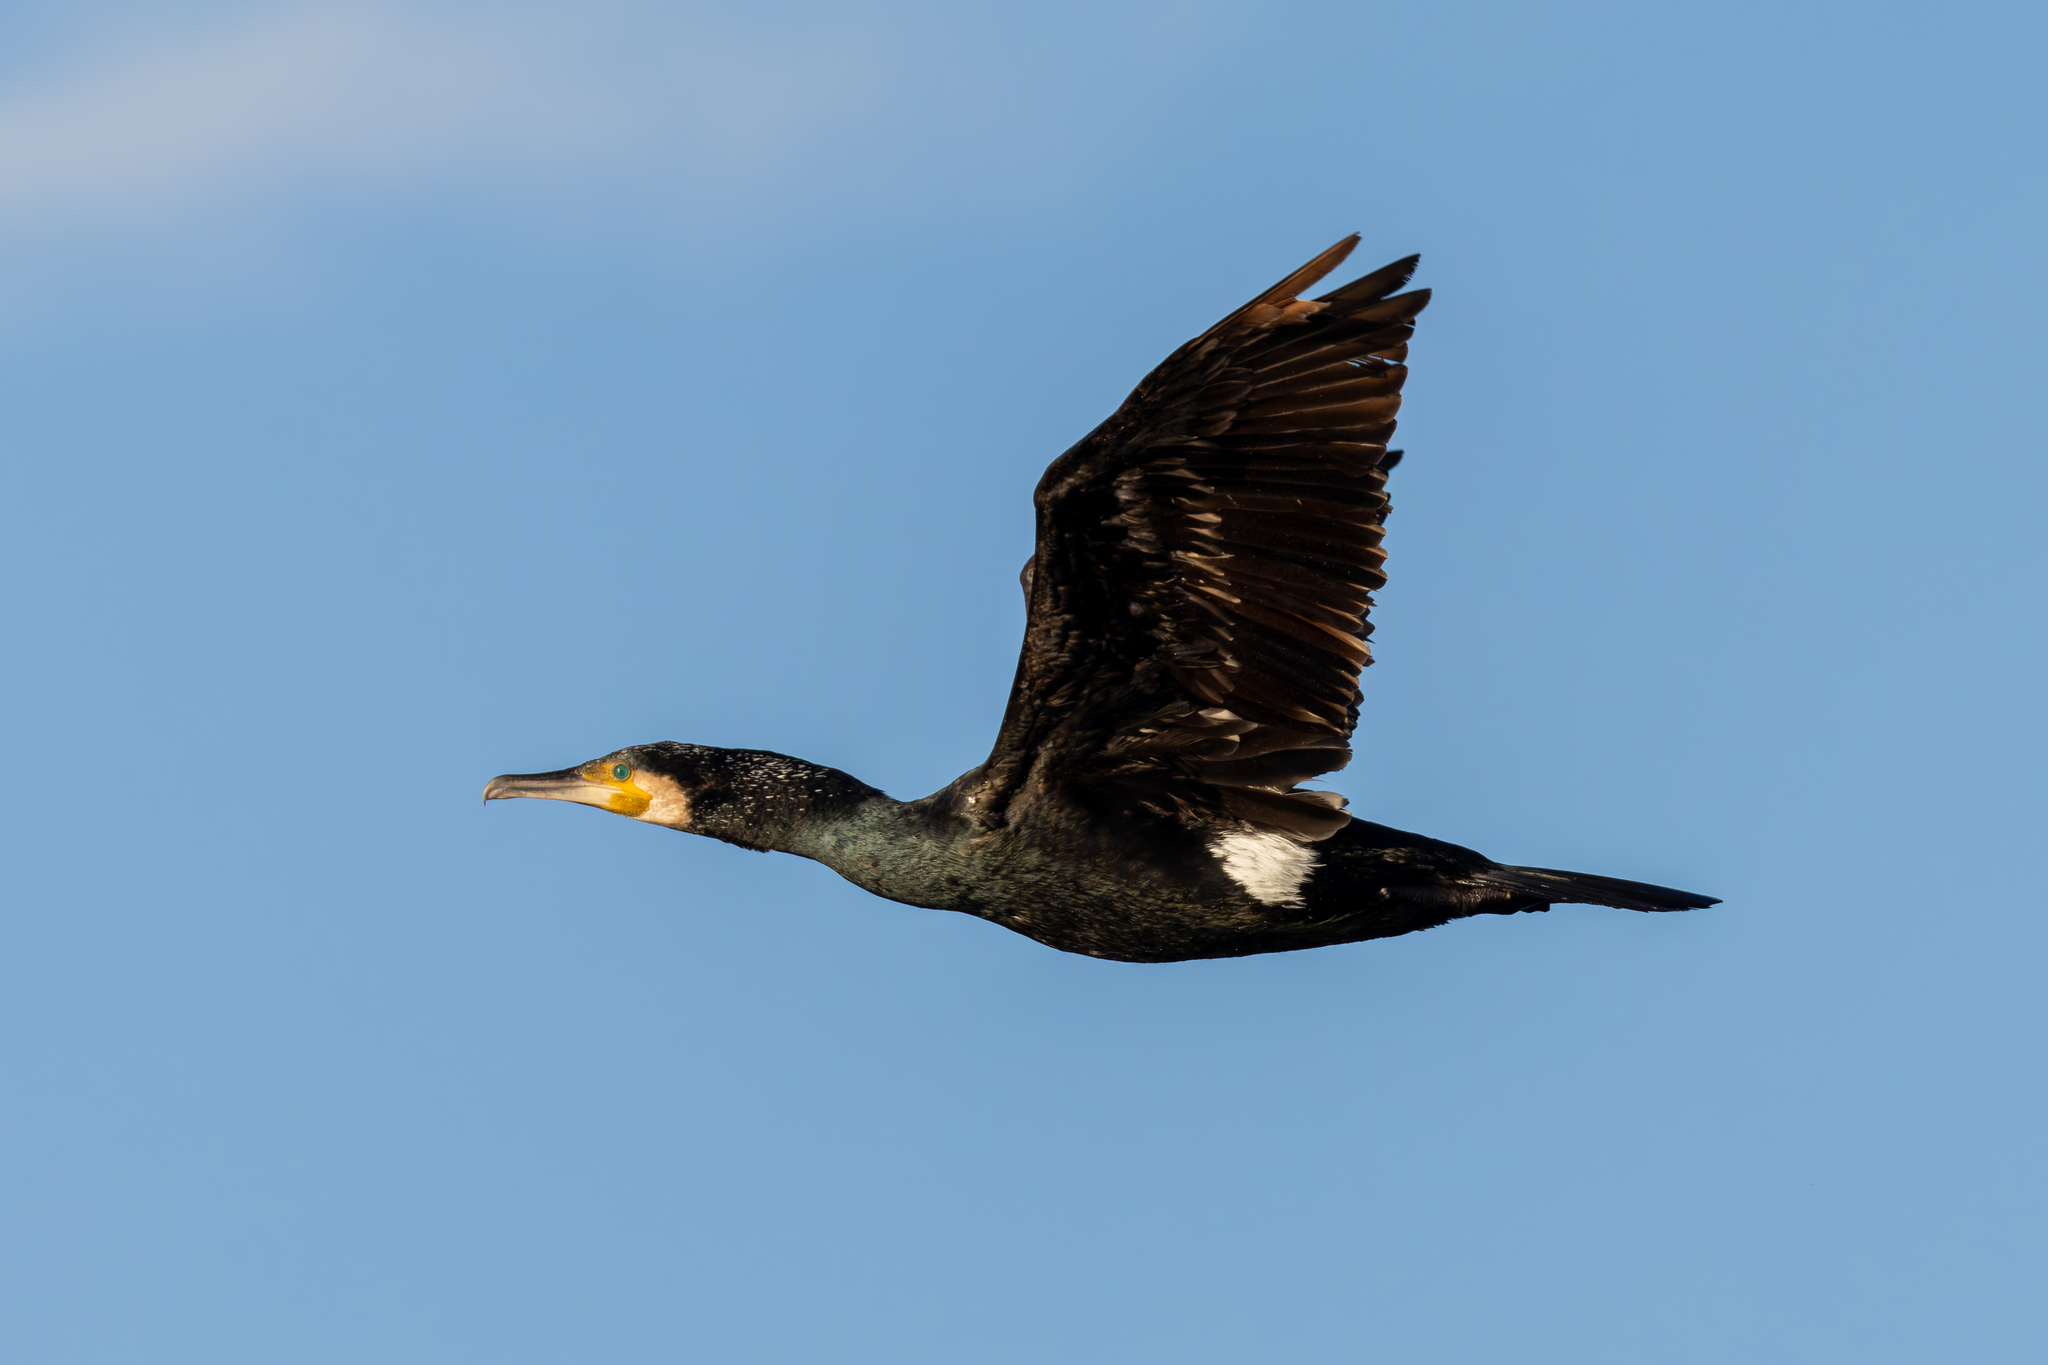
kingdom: Animalia
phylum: Chordata
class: Aves
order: Suliformes
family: Phalacrocoracidae
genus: Phalacrocorax
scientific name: Phalacrocorax carbo
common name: Great cormorant
